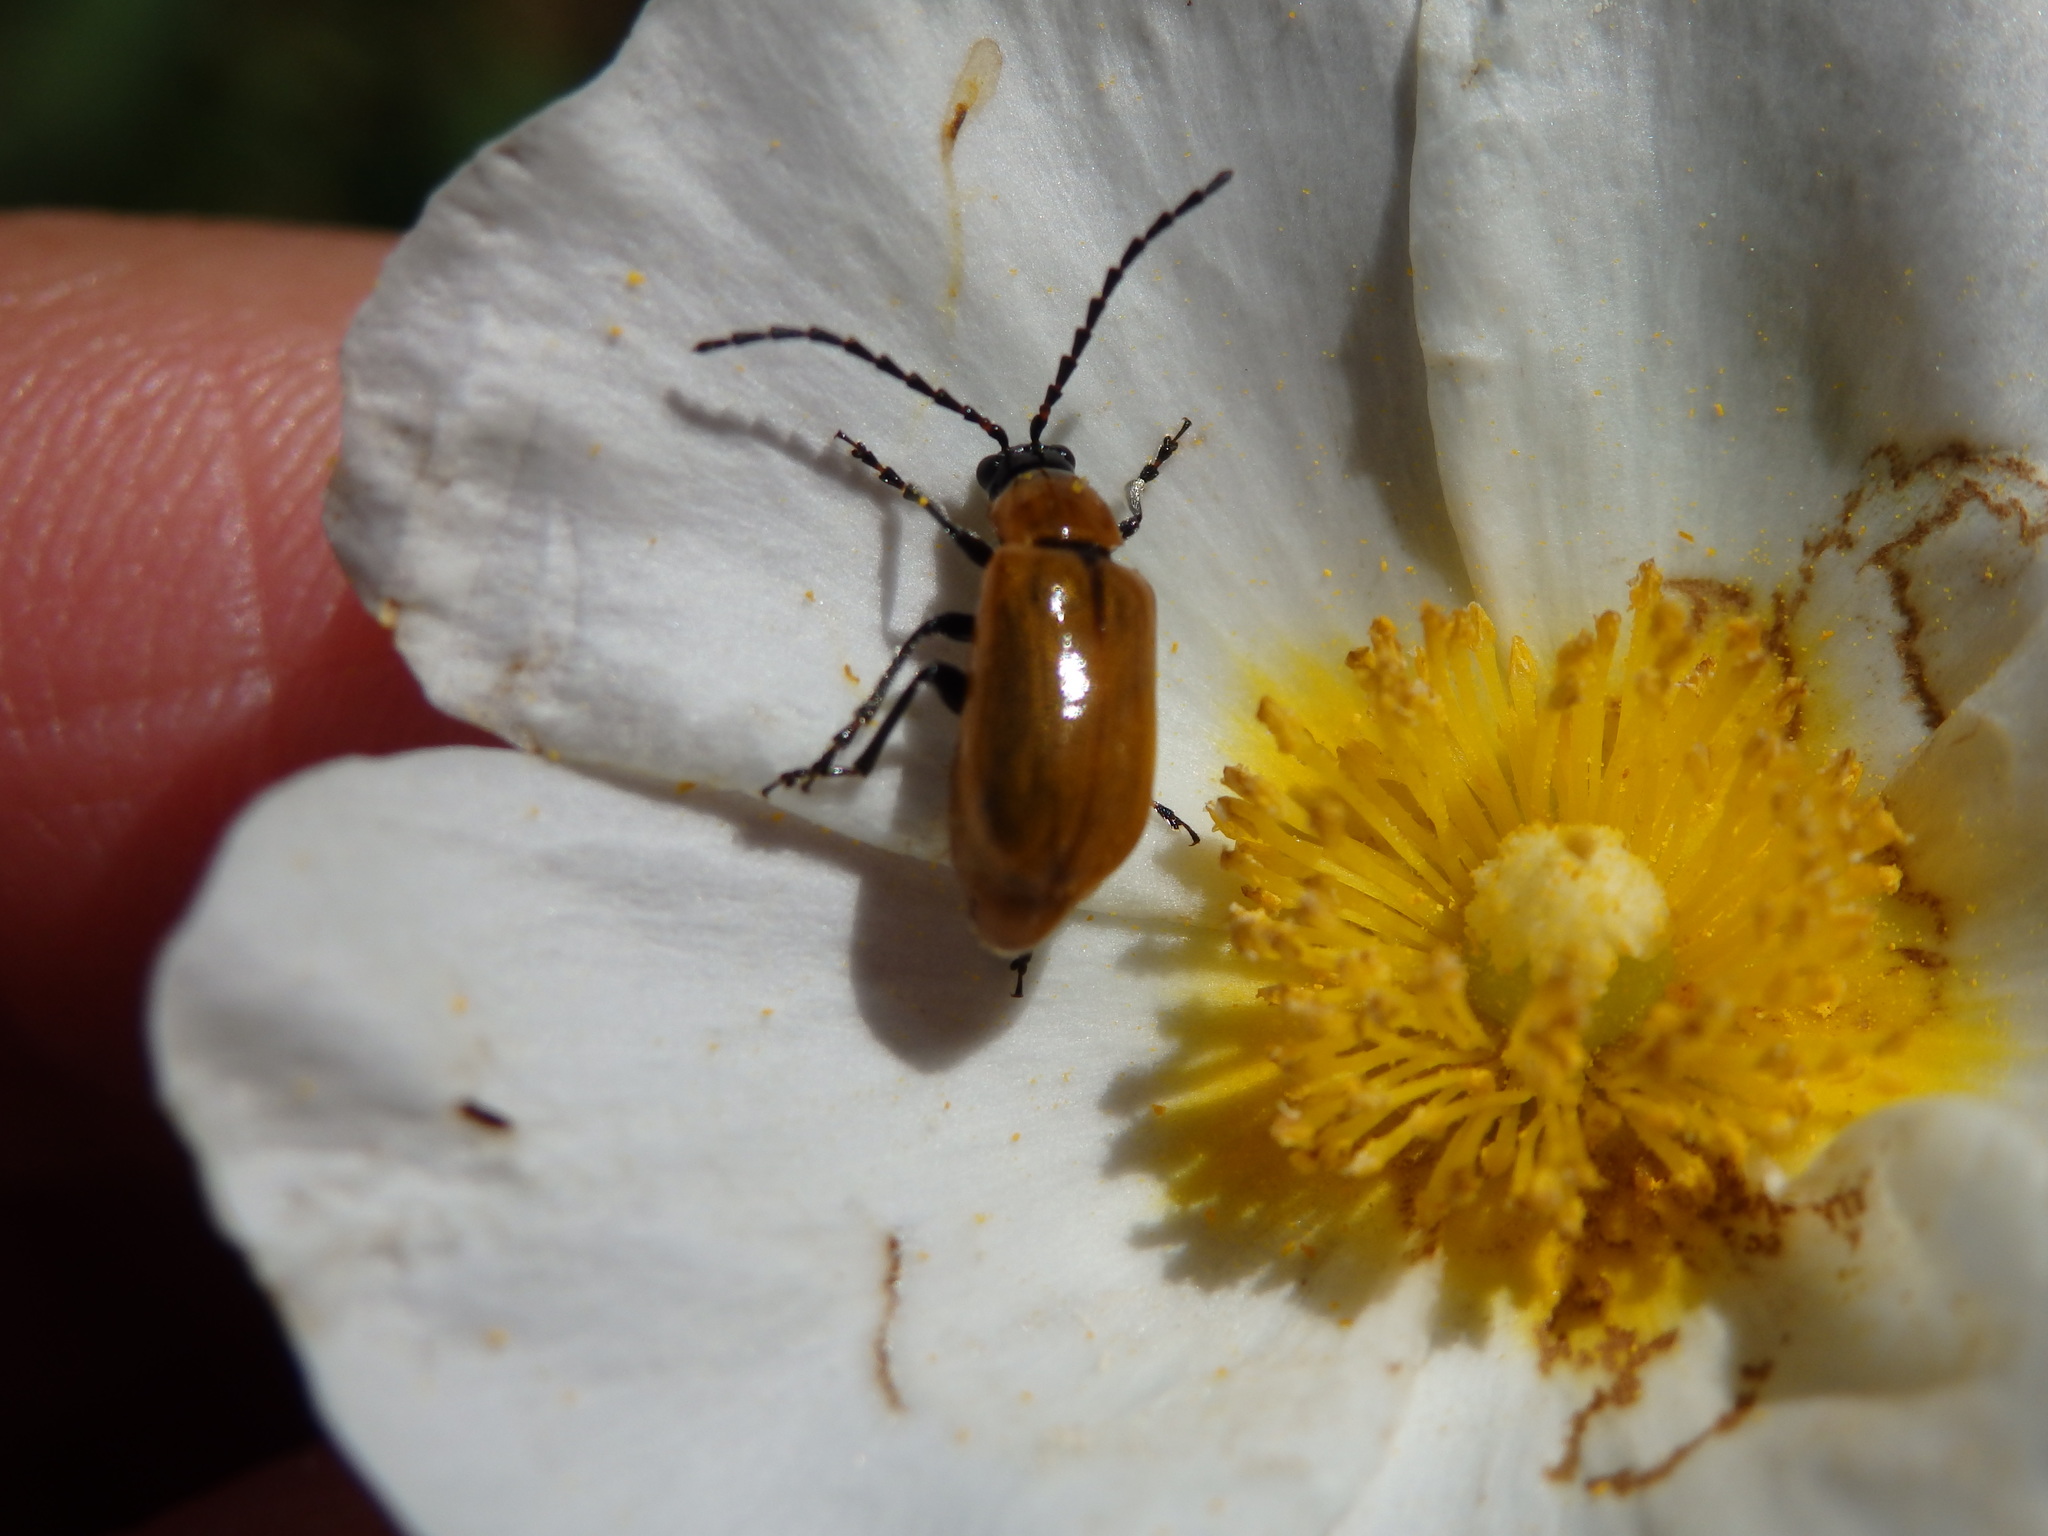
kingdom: Animalia
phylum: Arthropoda
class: Insecta
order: Coleoptera
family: Chrysomelidae
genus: Exosoma
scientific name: Exosoma lusitanicum
